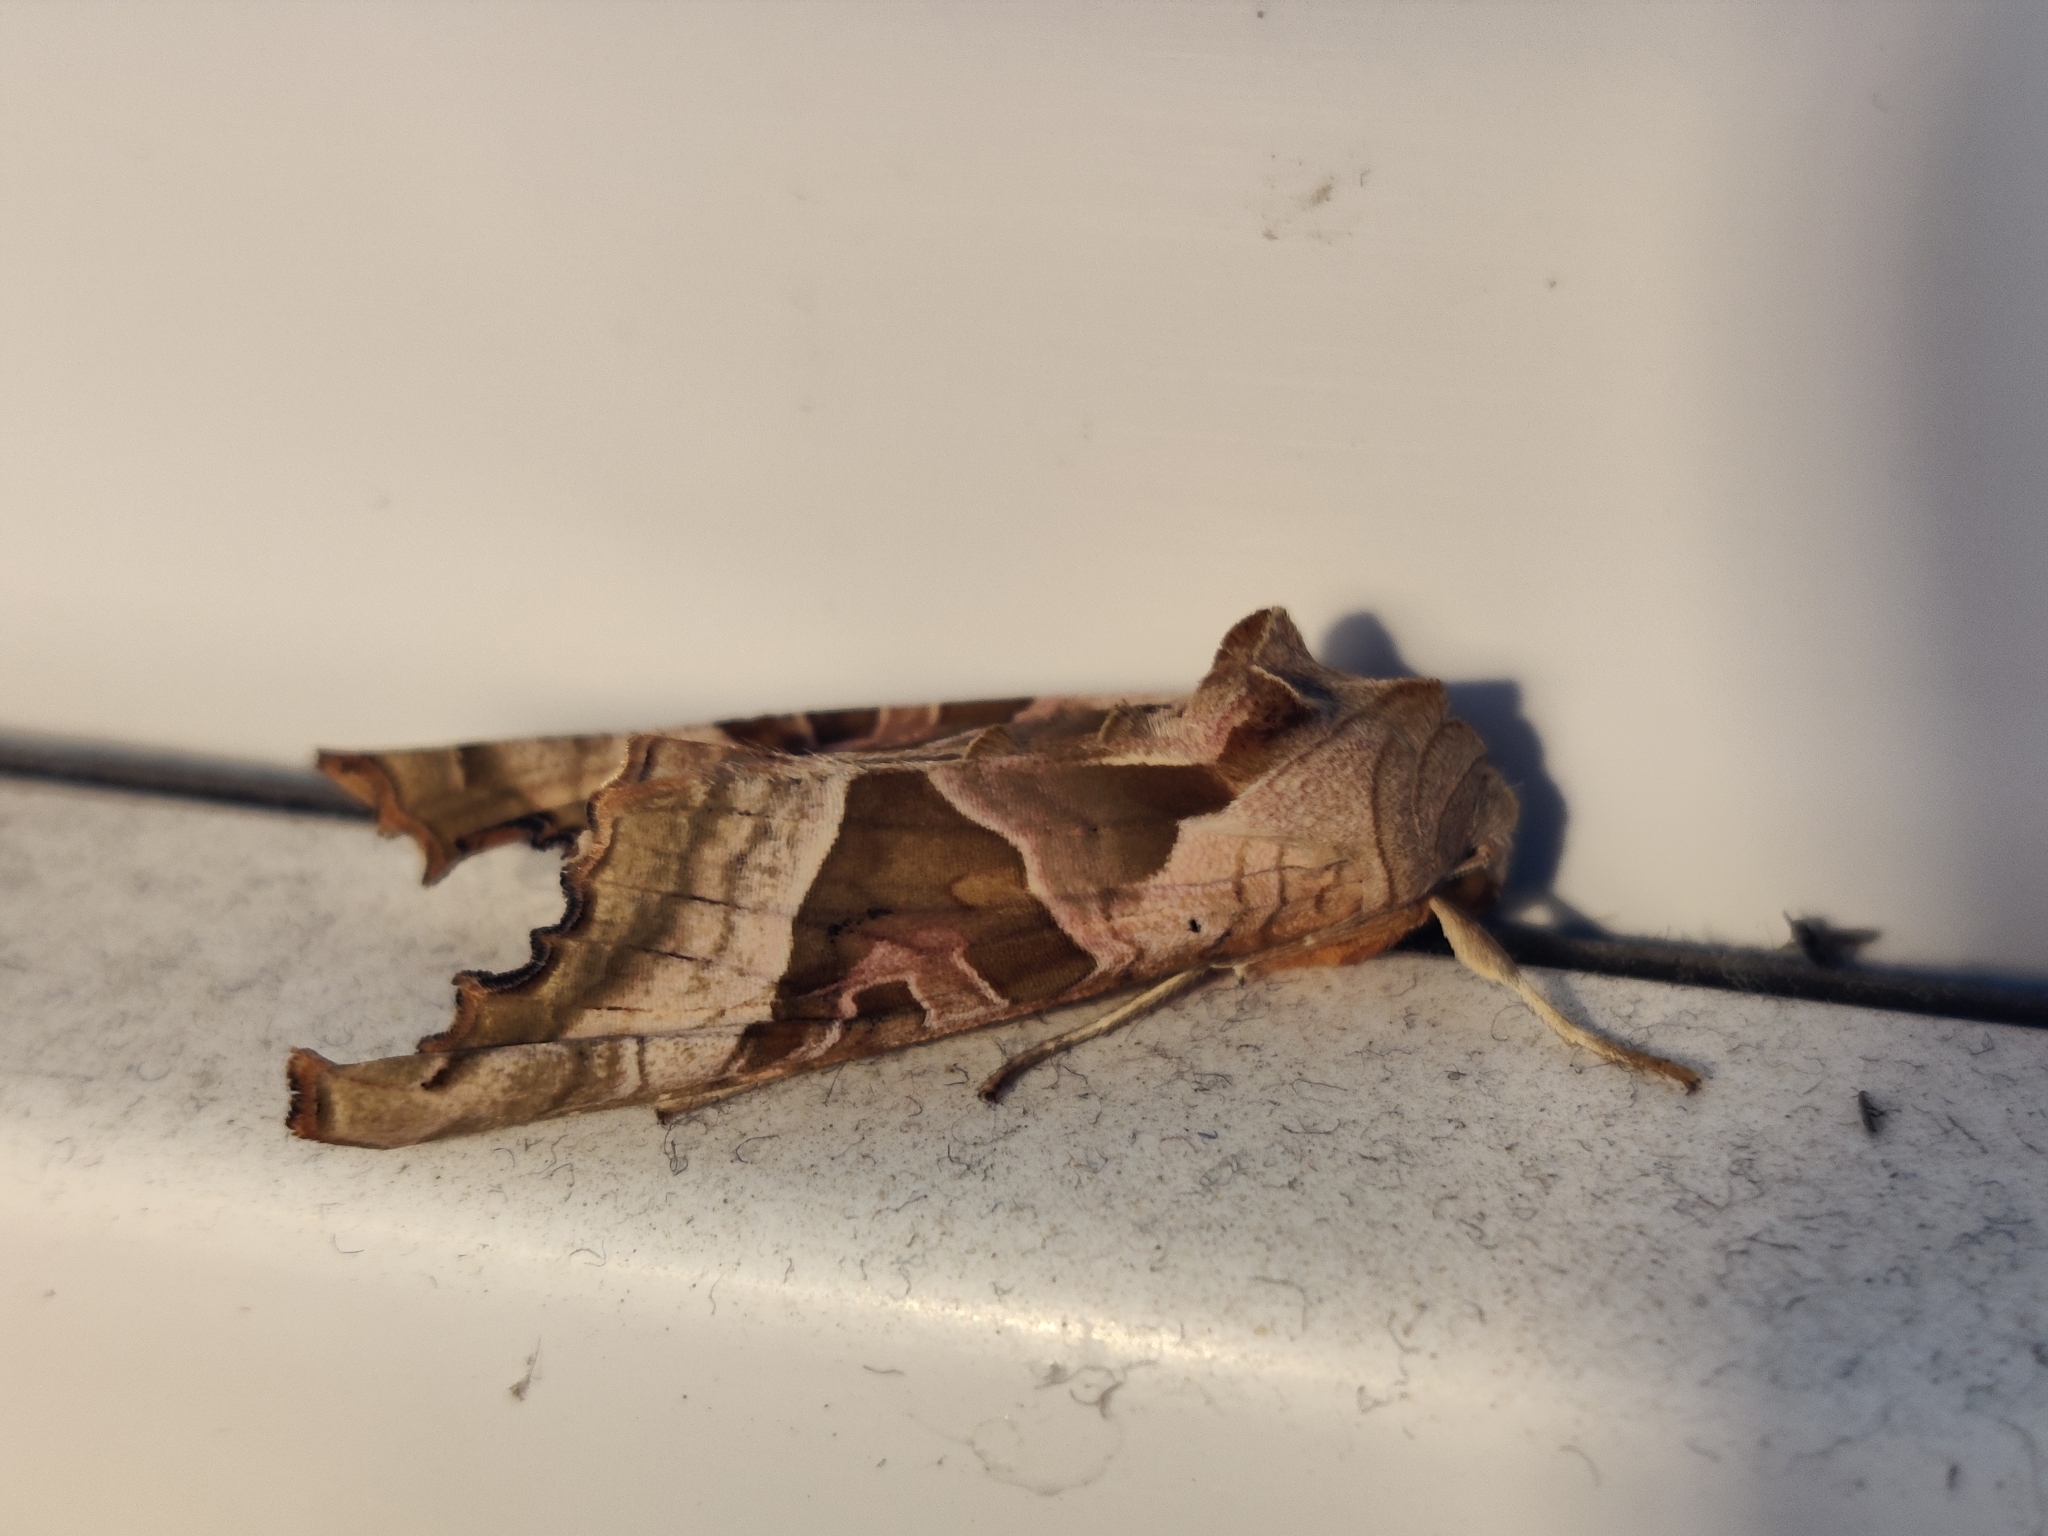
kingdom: Animalia
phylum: Arthropoda
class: Insecta
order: Lepidoptera
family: Noctuidae
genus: Phlogophora
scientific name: Phlogophora meticulosa
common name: Angle shades
